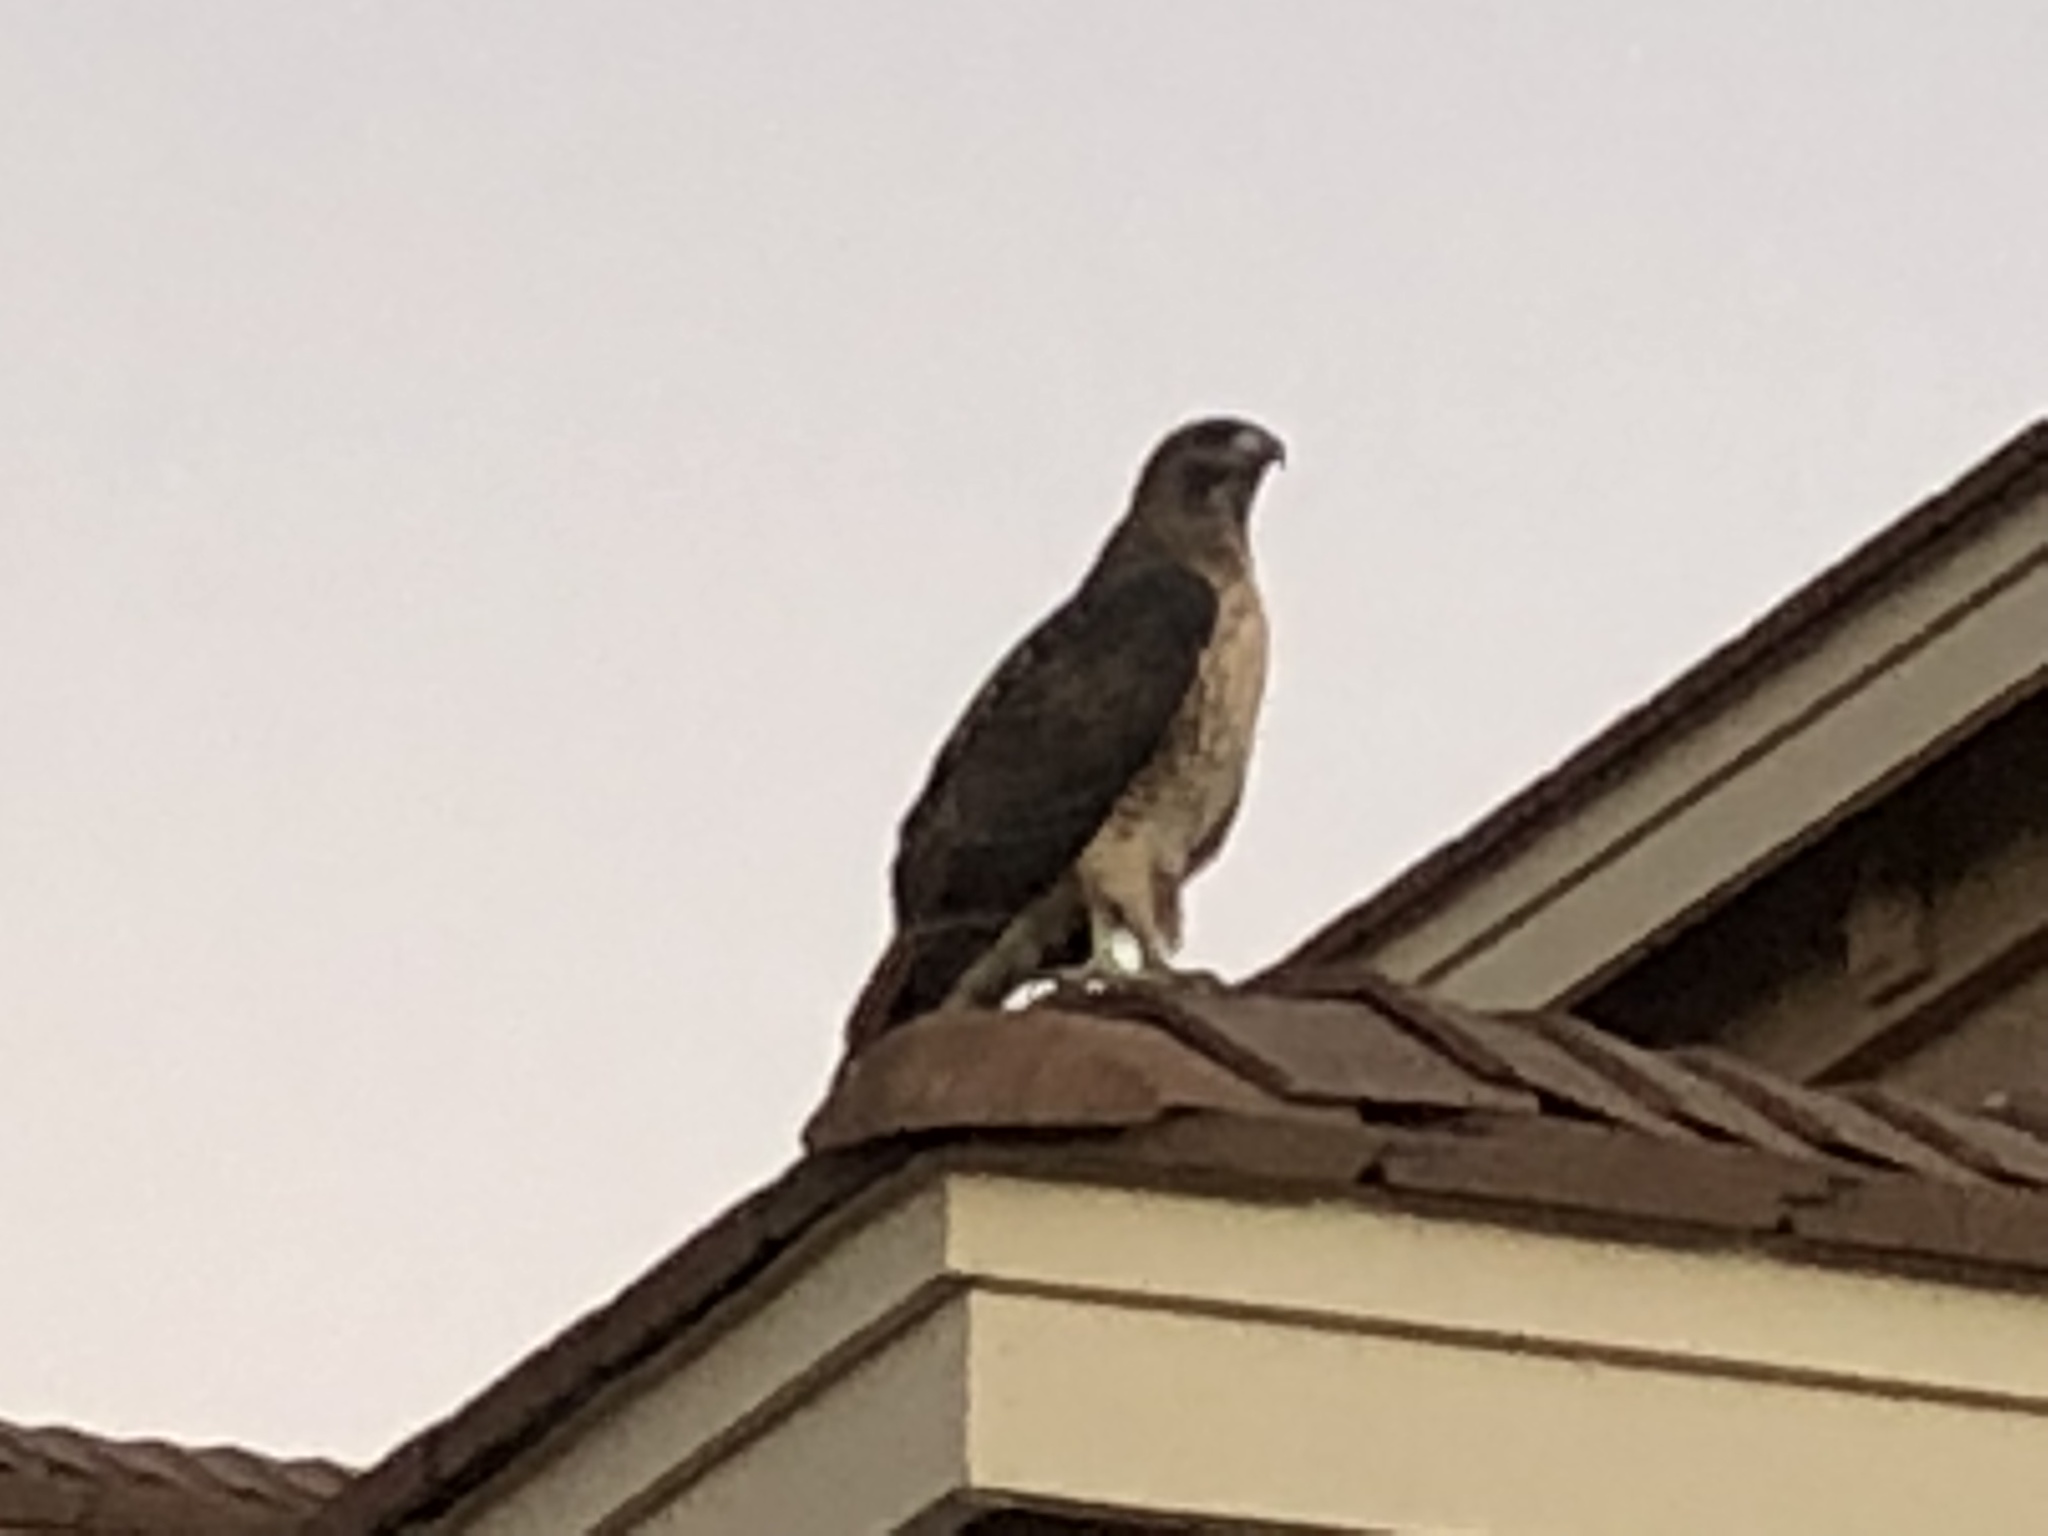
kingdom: Animalia
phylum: Chordata
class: Aves
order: Accipitriformes
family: Accipitridae
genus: Buteo
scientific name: Buteo jamaicensis
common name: Red-tailed hawk
